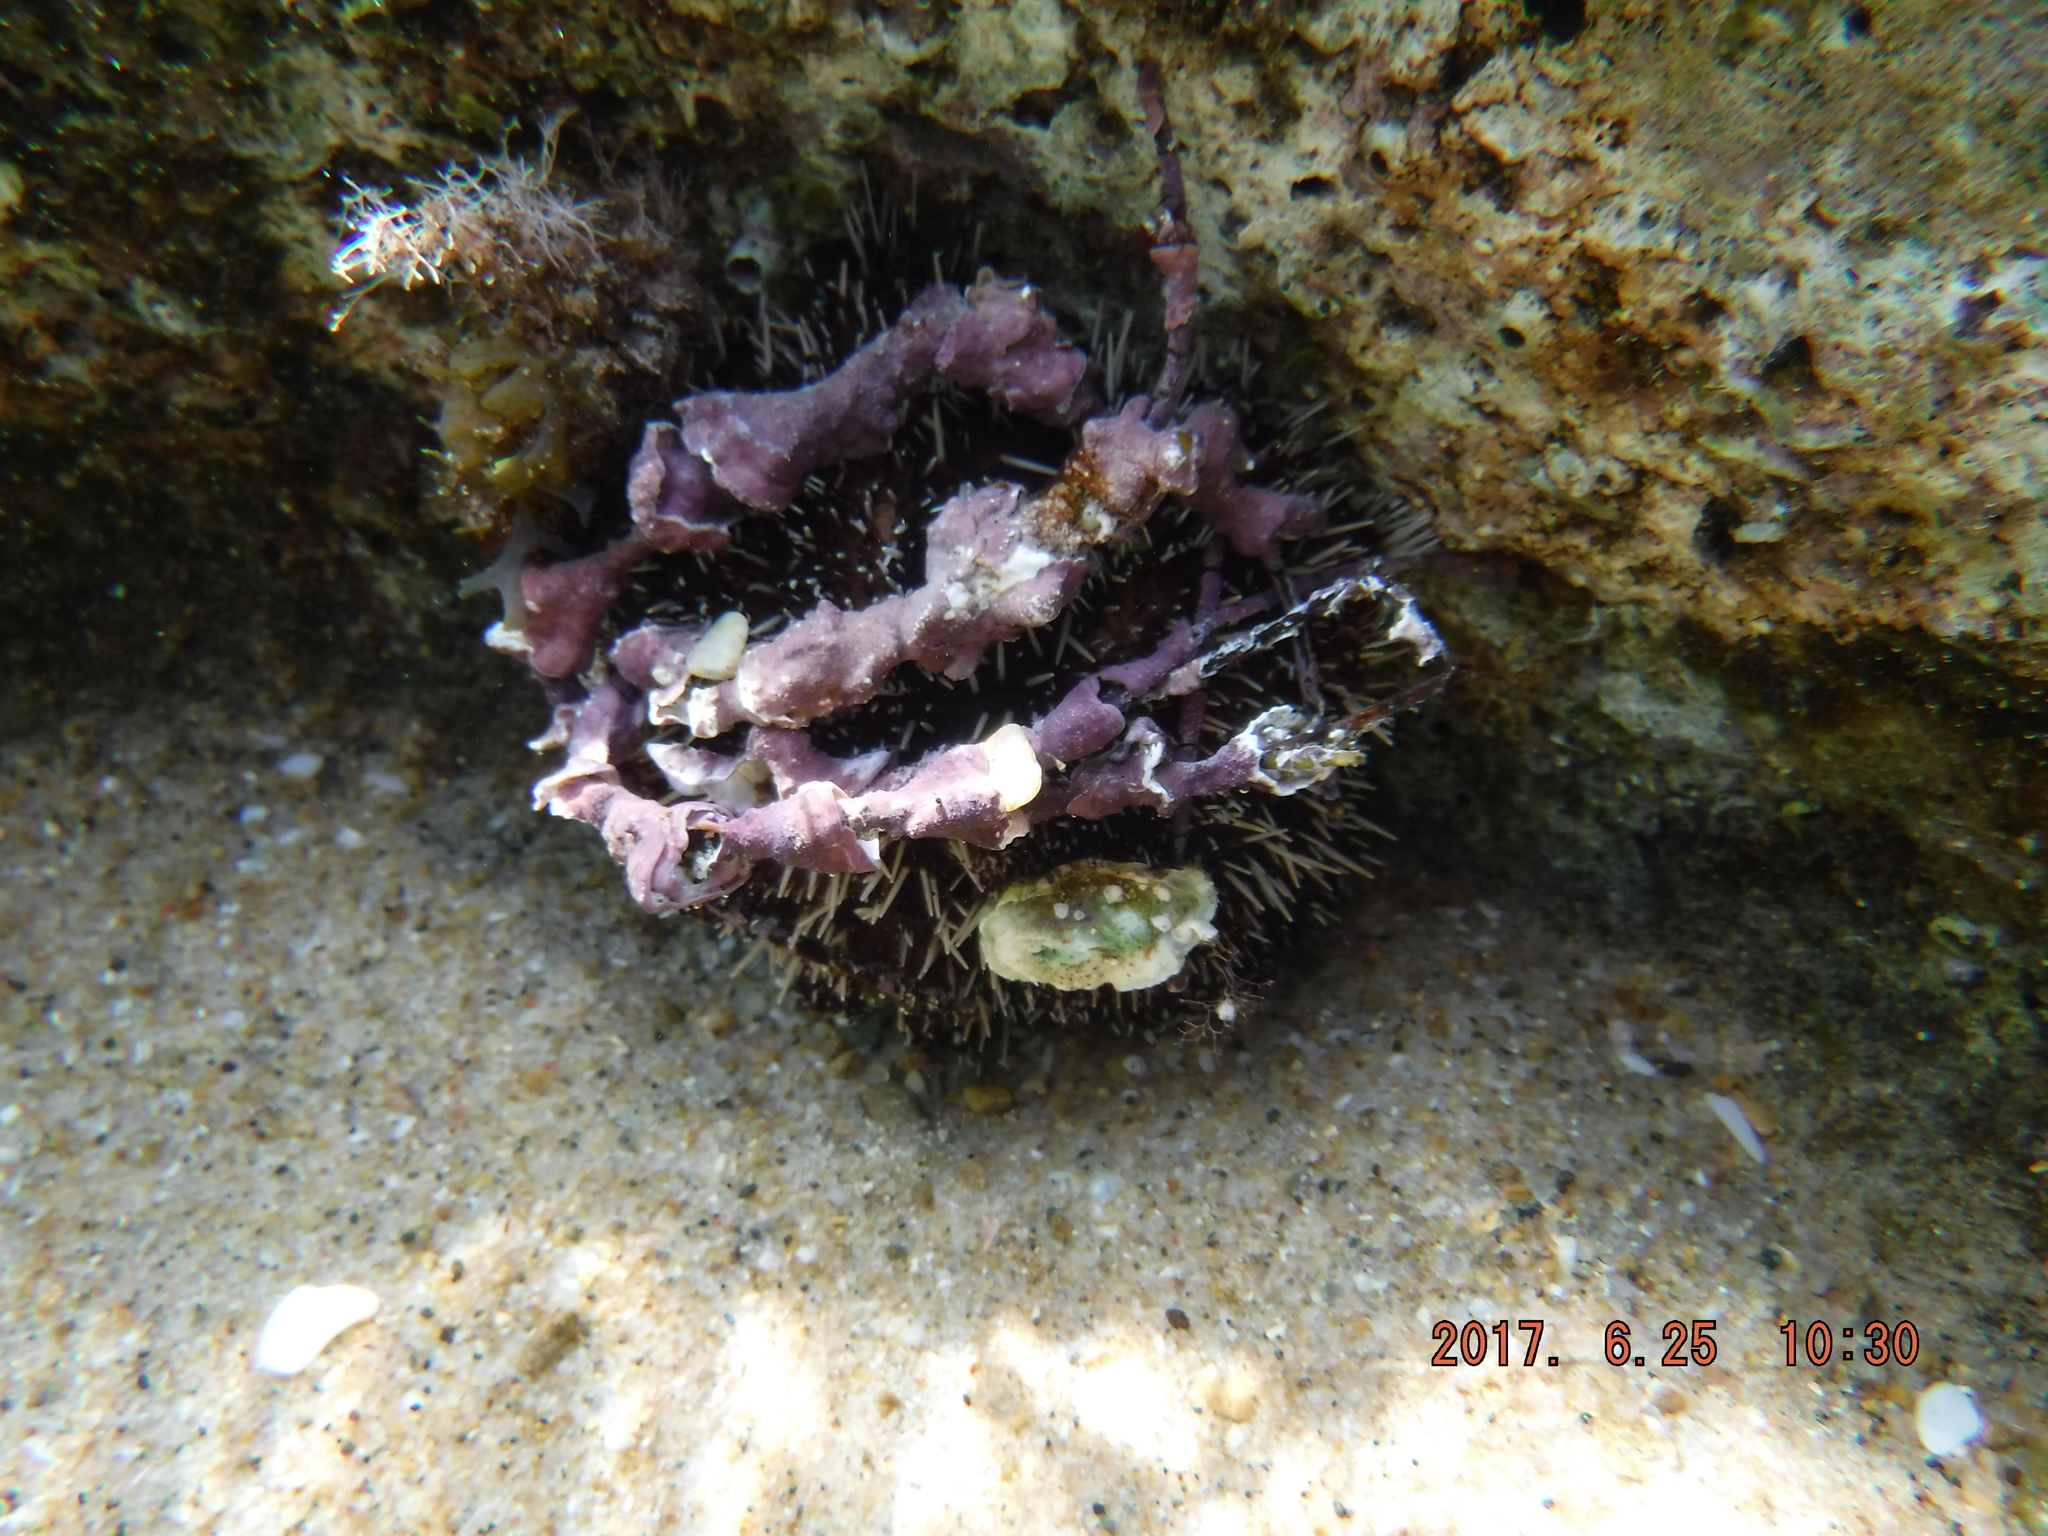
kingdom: Animalia
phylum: Echinodermata
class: Echinoidea
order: Camarodonta
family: Toxopneustidae
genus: Tripneustes
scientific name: Tripneustes gratilla
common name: Bischofsmützenseeigel
